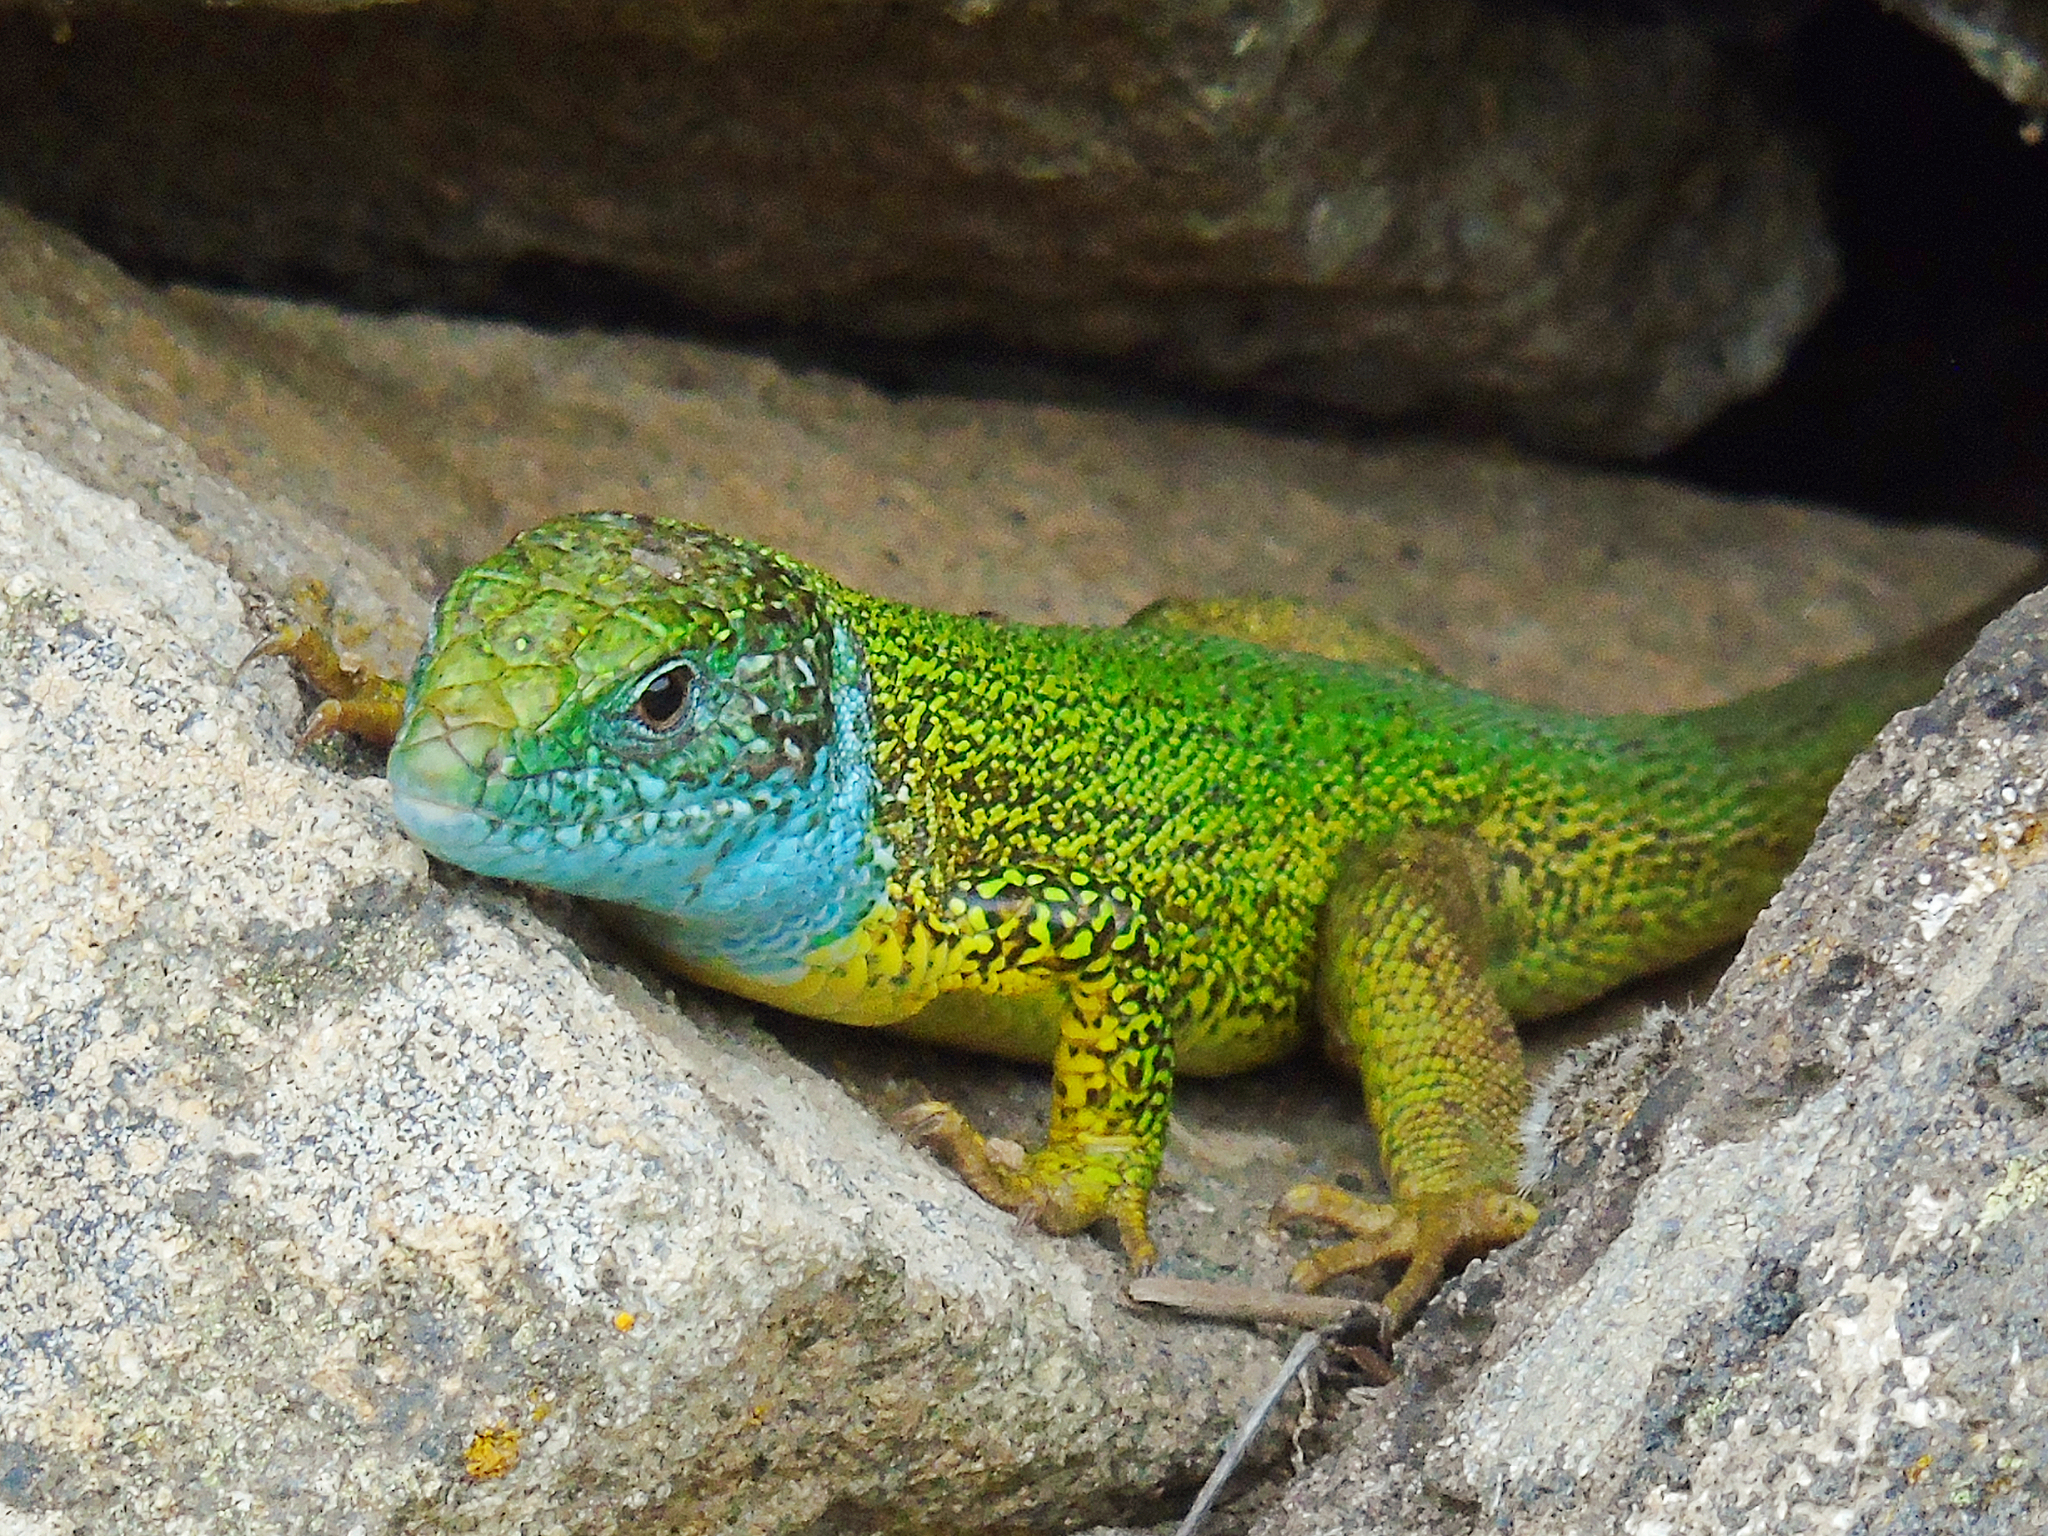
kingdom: Animalia
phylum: Chordata
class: Squamata
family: Lacertidae
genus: Lacerta
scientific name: Lacerta viridis
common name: European green lizard
